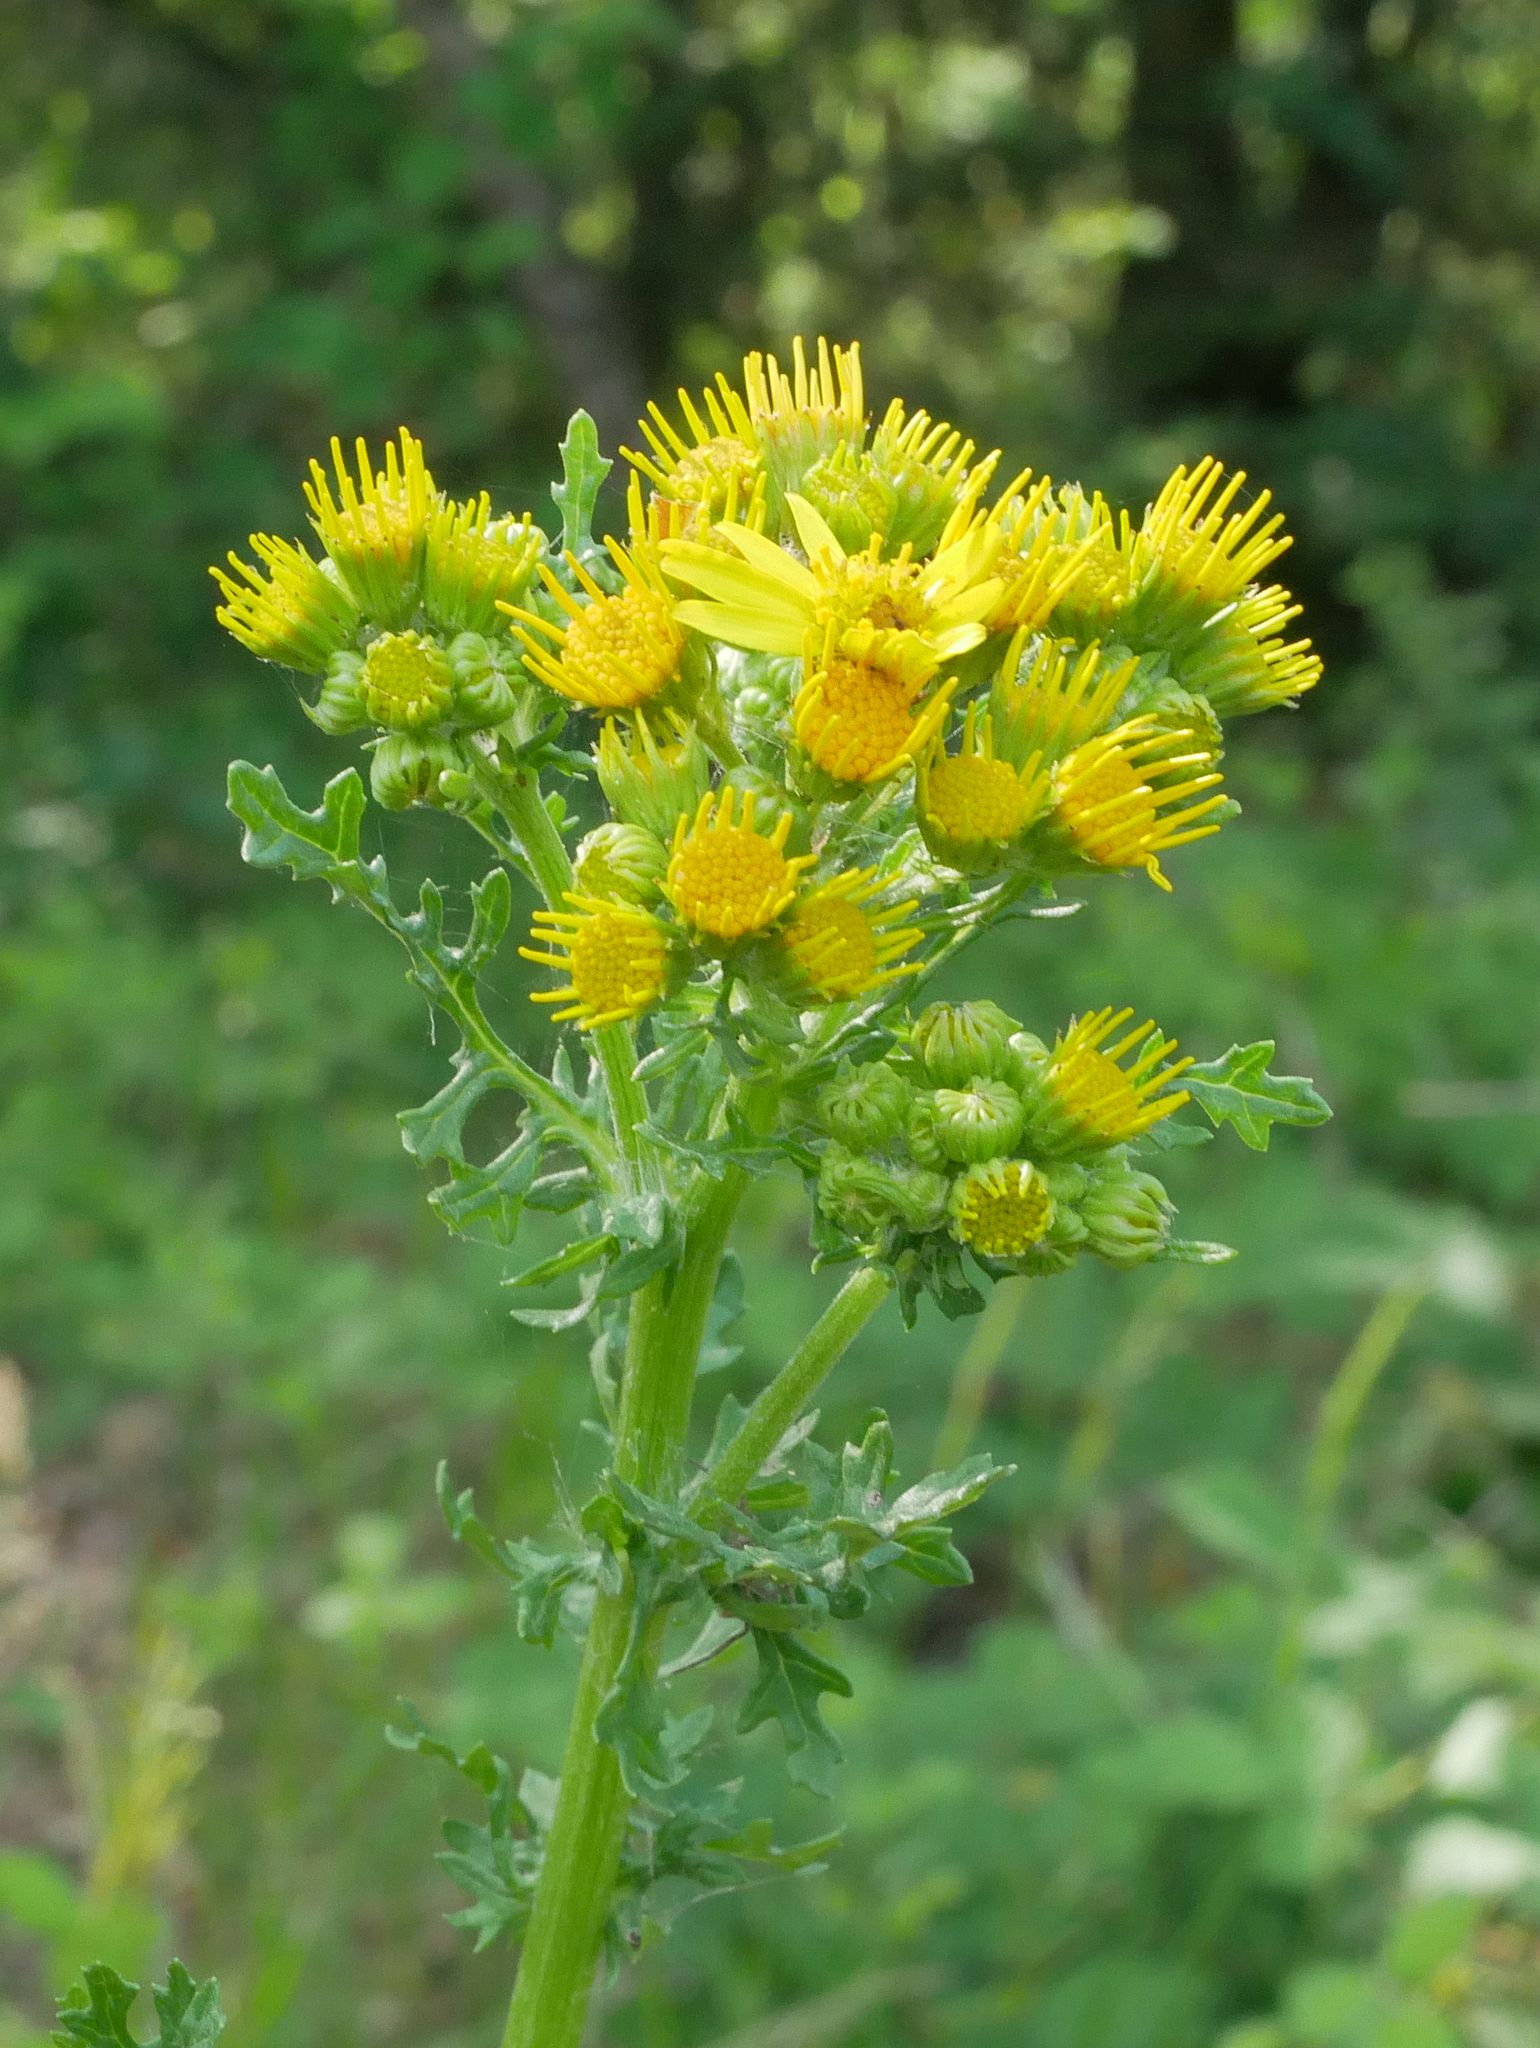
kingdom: Plantae
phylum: Tracheophyta
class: Magnoliopsida
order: Asterales
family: Asteraceae
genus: Jacobaea
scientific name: Jacobaea vulgaris
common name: Stinking willie
